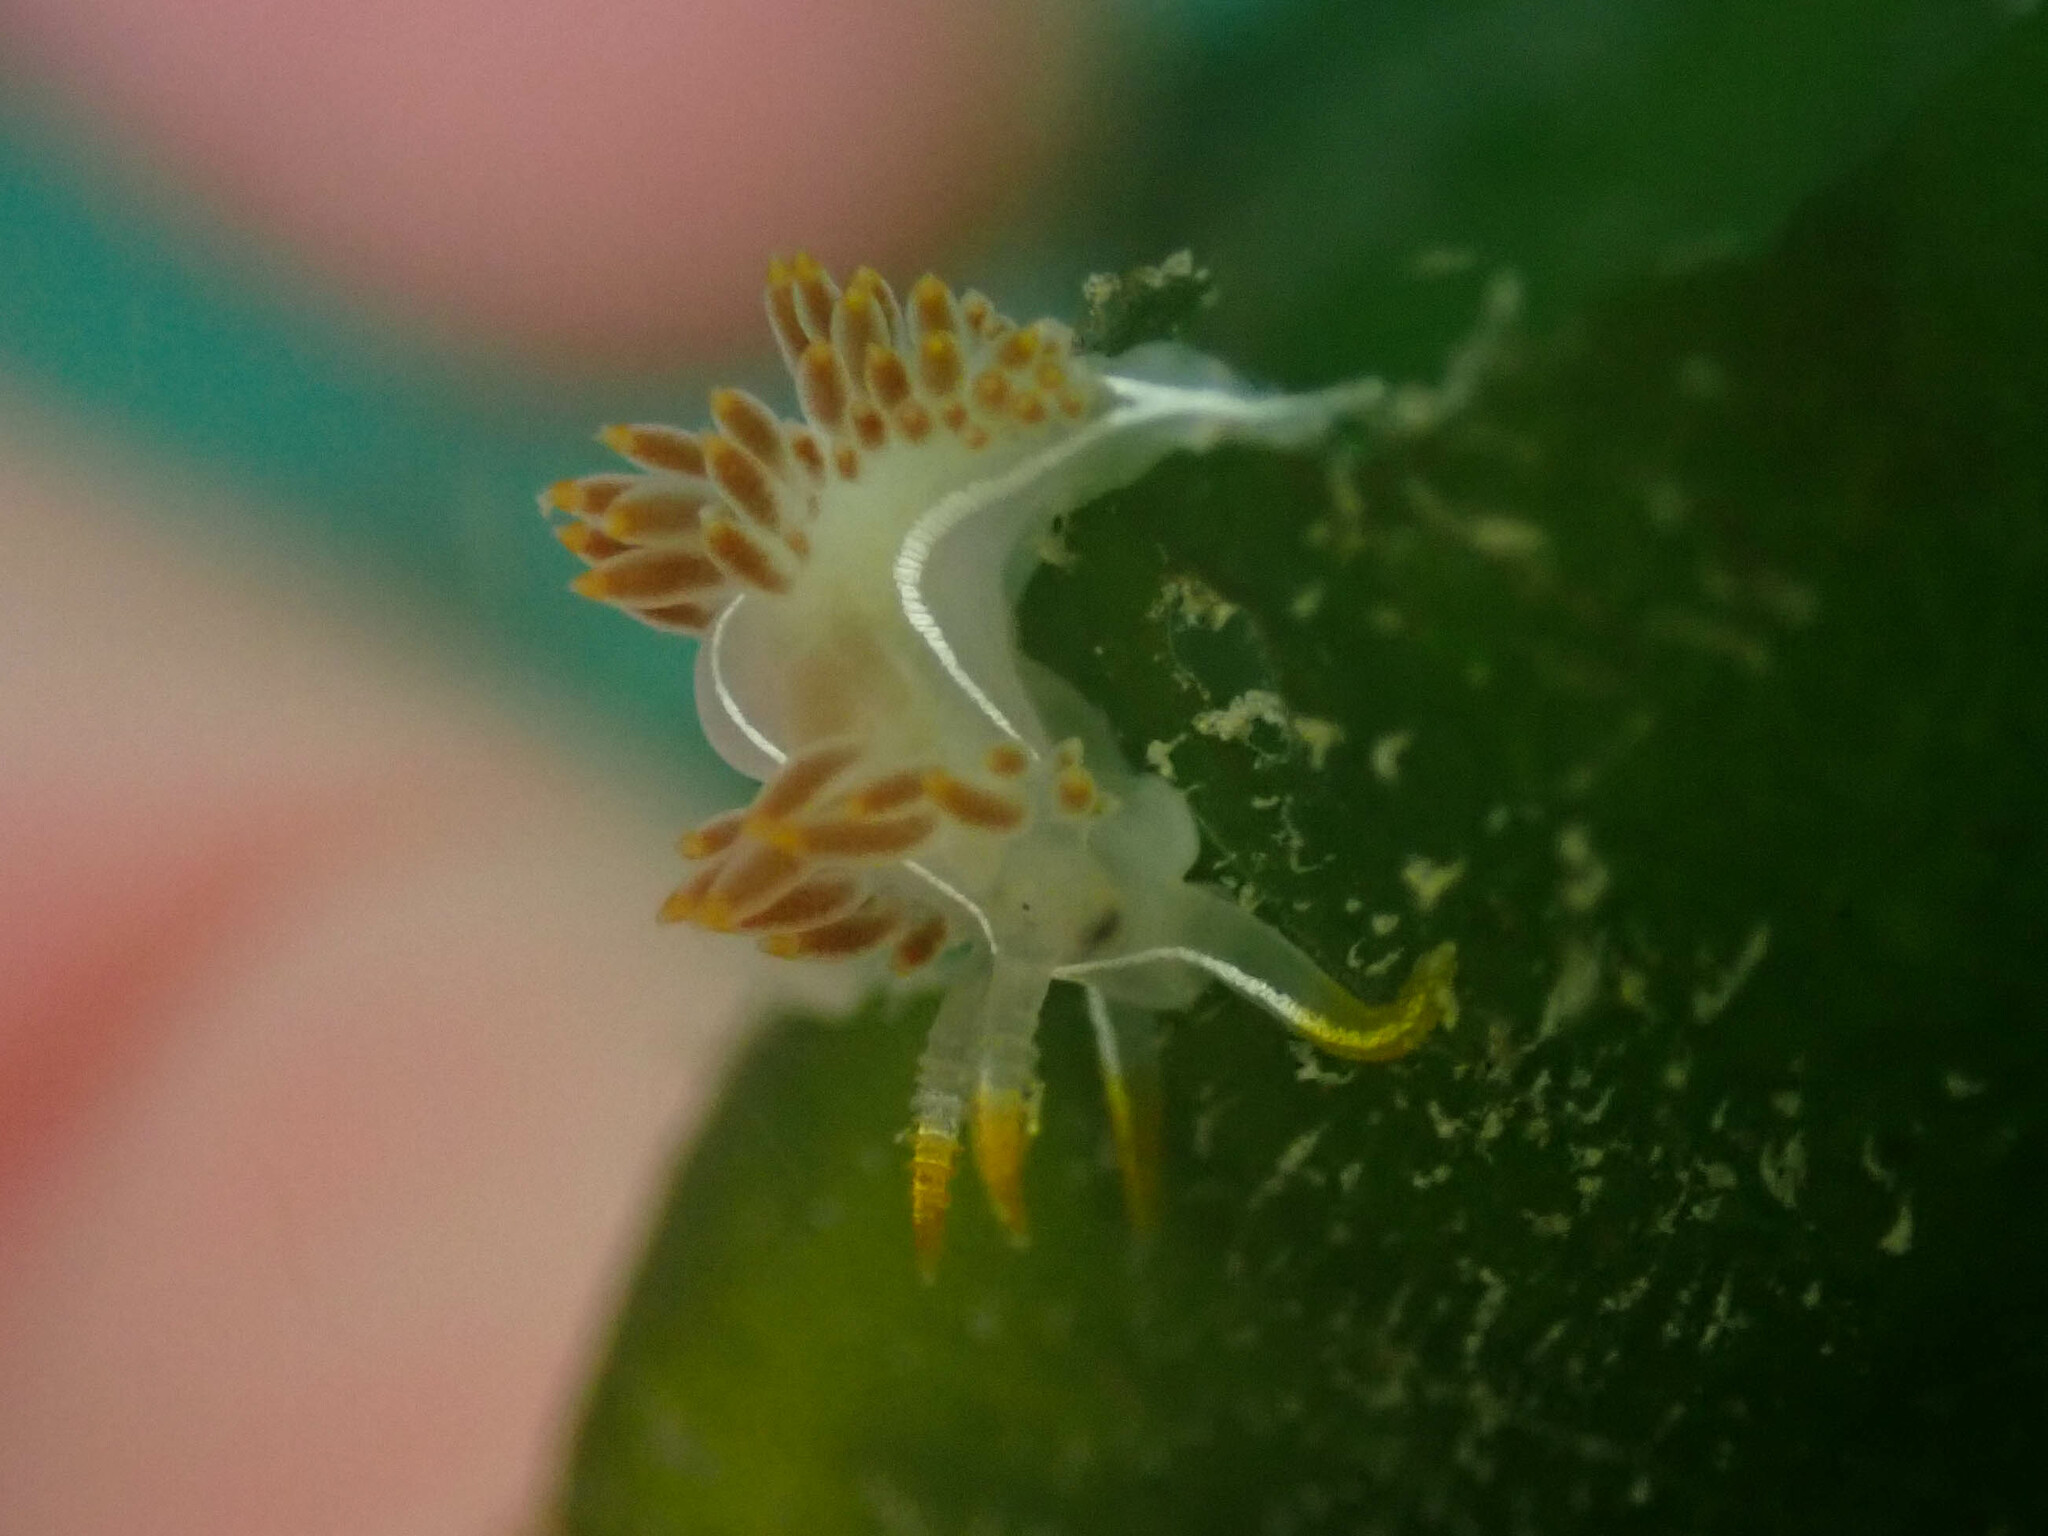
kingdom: Animalia
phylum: Mollusca
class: Gastropoda
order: Nudibranchia
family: Coryphellidae
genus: Coryphella
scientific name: Coryphella trilineata
